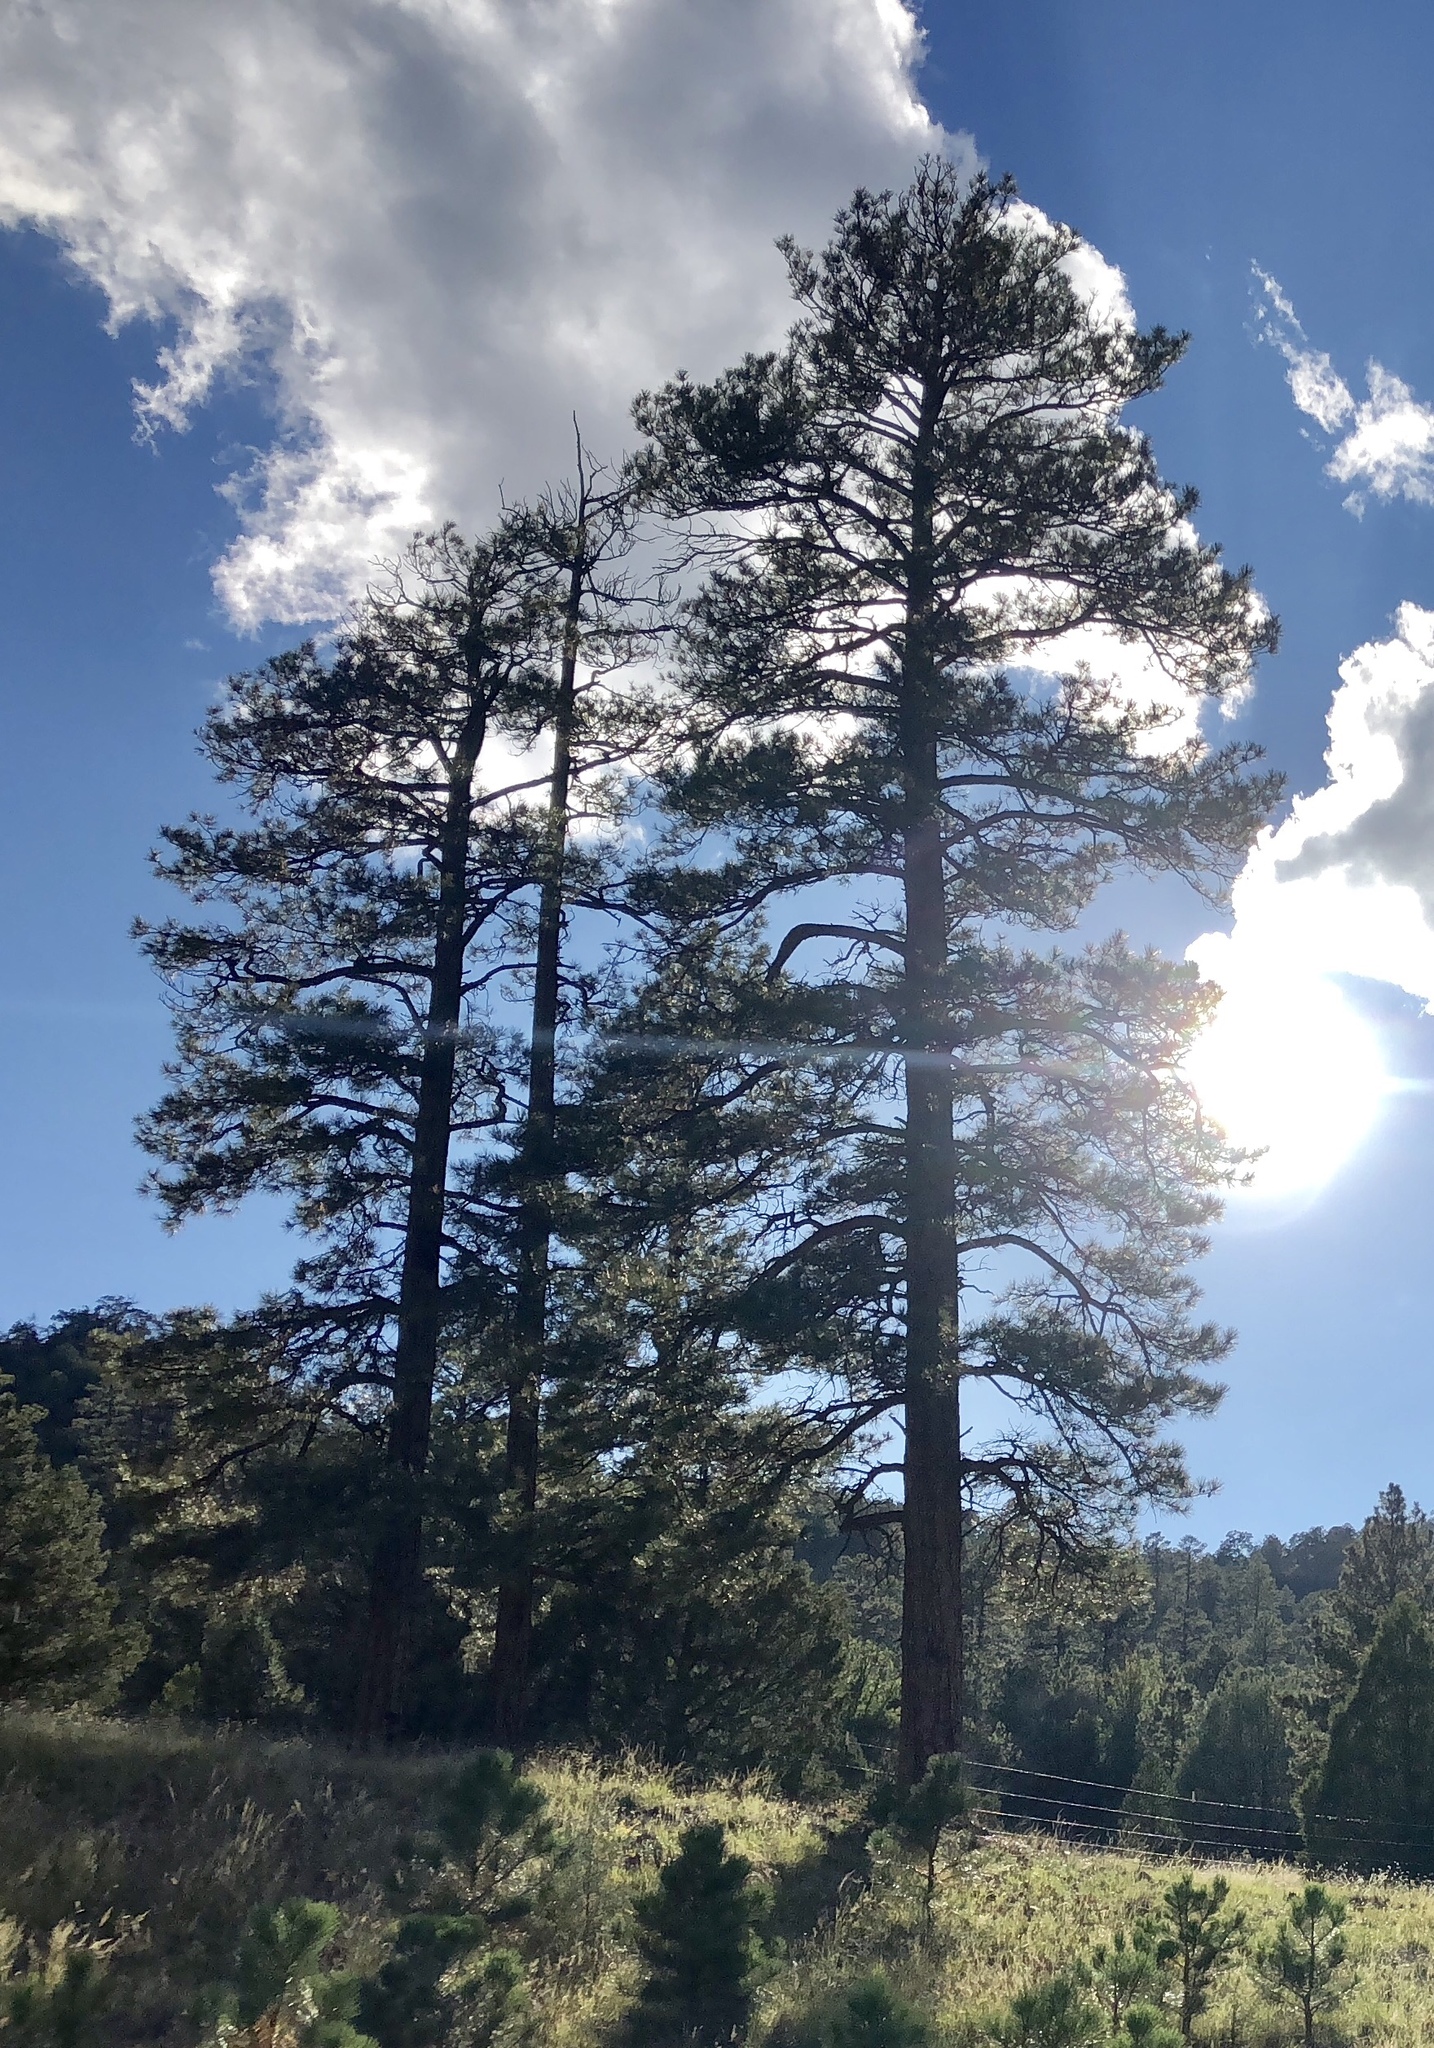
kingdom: Plantae
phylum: Tracheophyta
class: Pinopsida
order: Pinales
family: Pinaceae
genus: Pinus
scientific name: Pinus ponderosa
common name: Western yellow-pine
